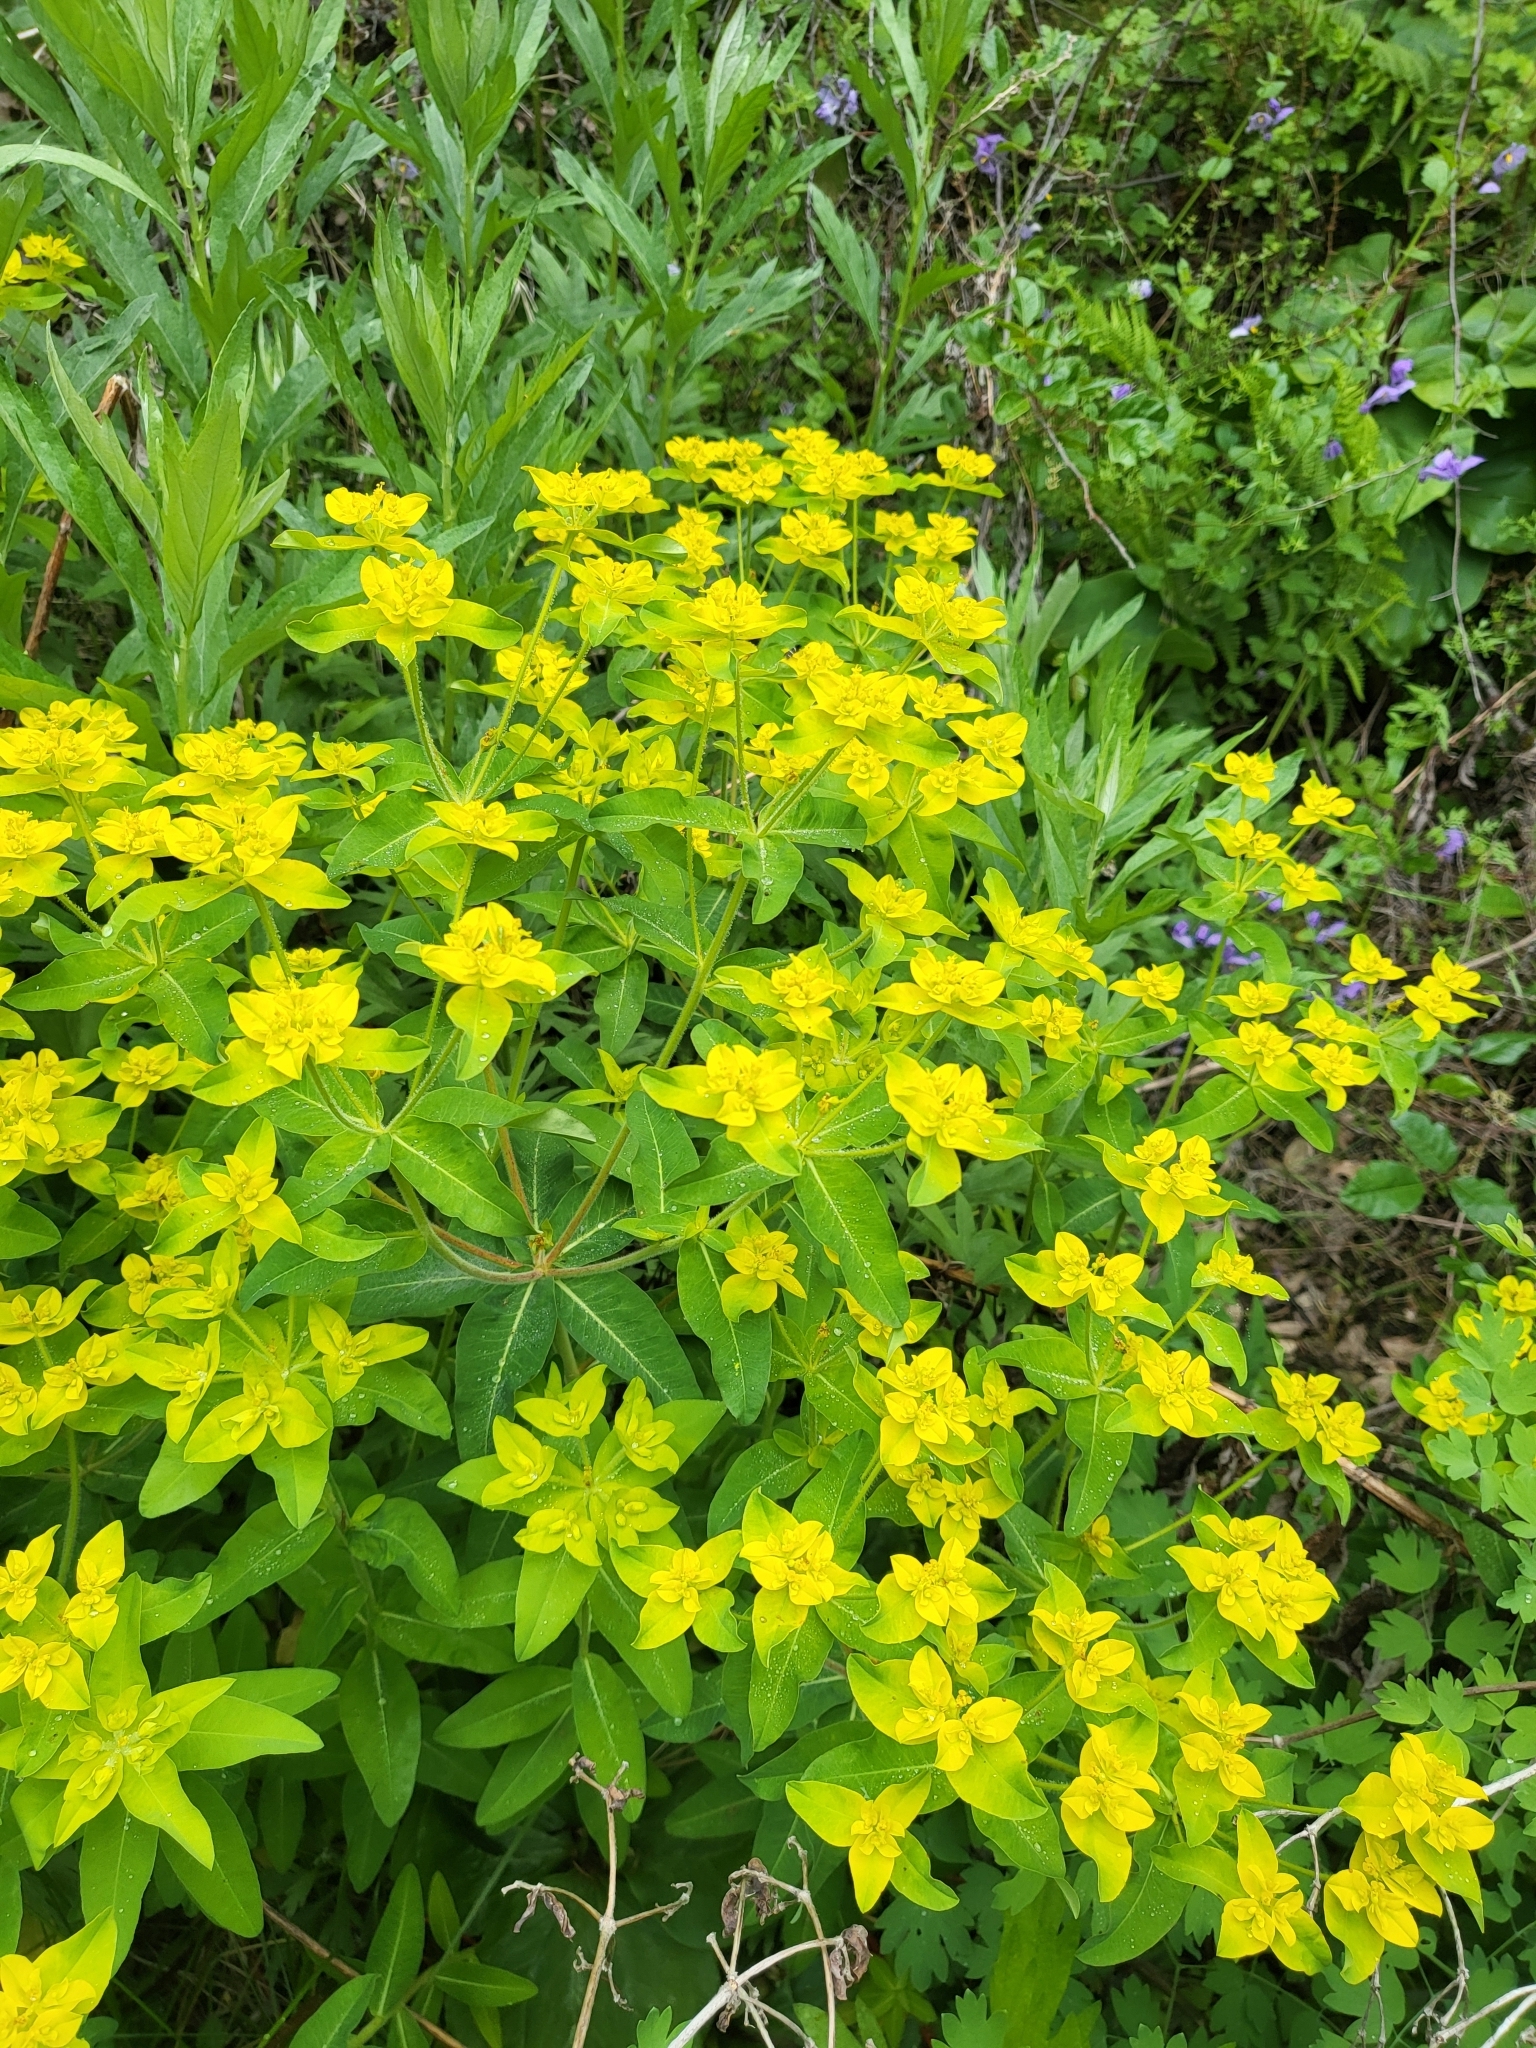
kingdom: Plantae
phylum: Tracheophyta
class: Magnoliopsida
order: Malpighiales
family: Euphorbiaceae
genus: Euphorbia
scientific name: Euphorbia oblongata
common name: Balkan spurge
